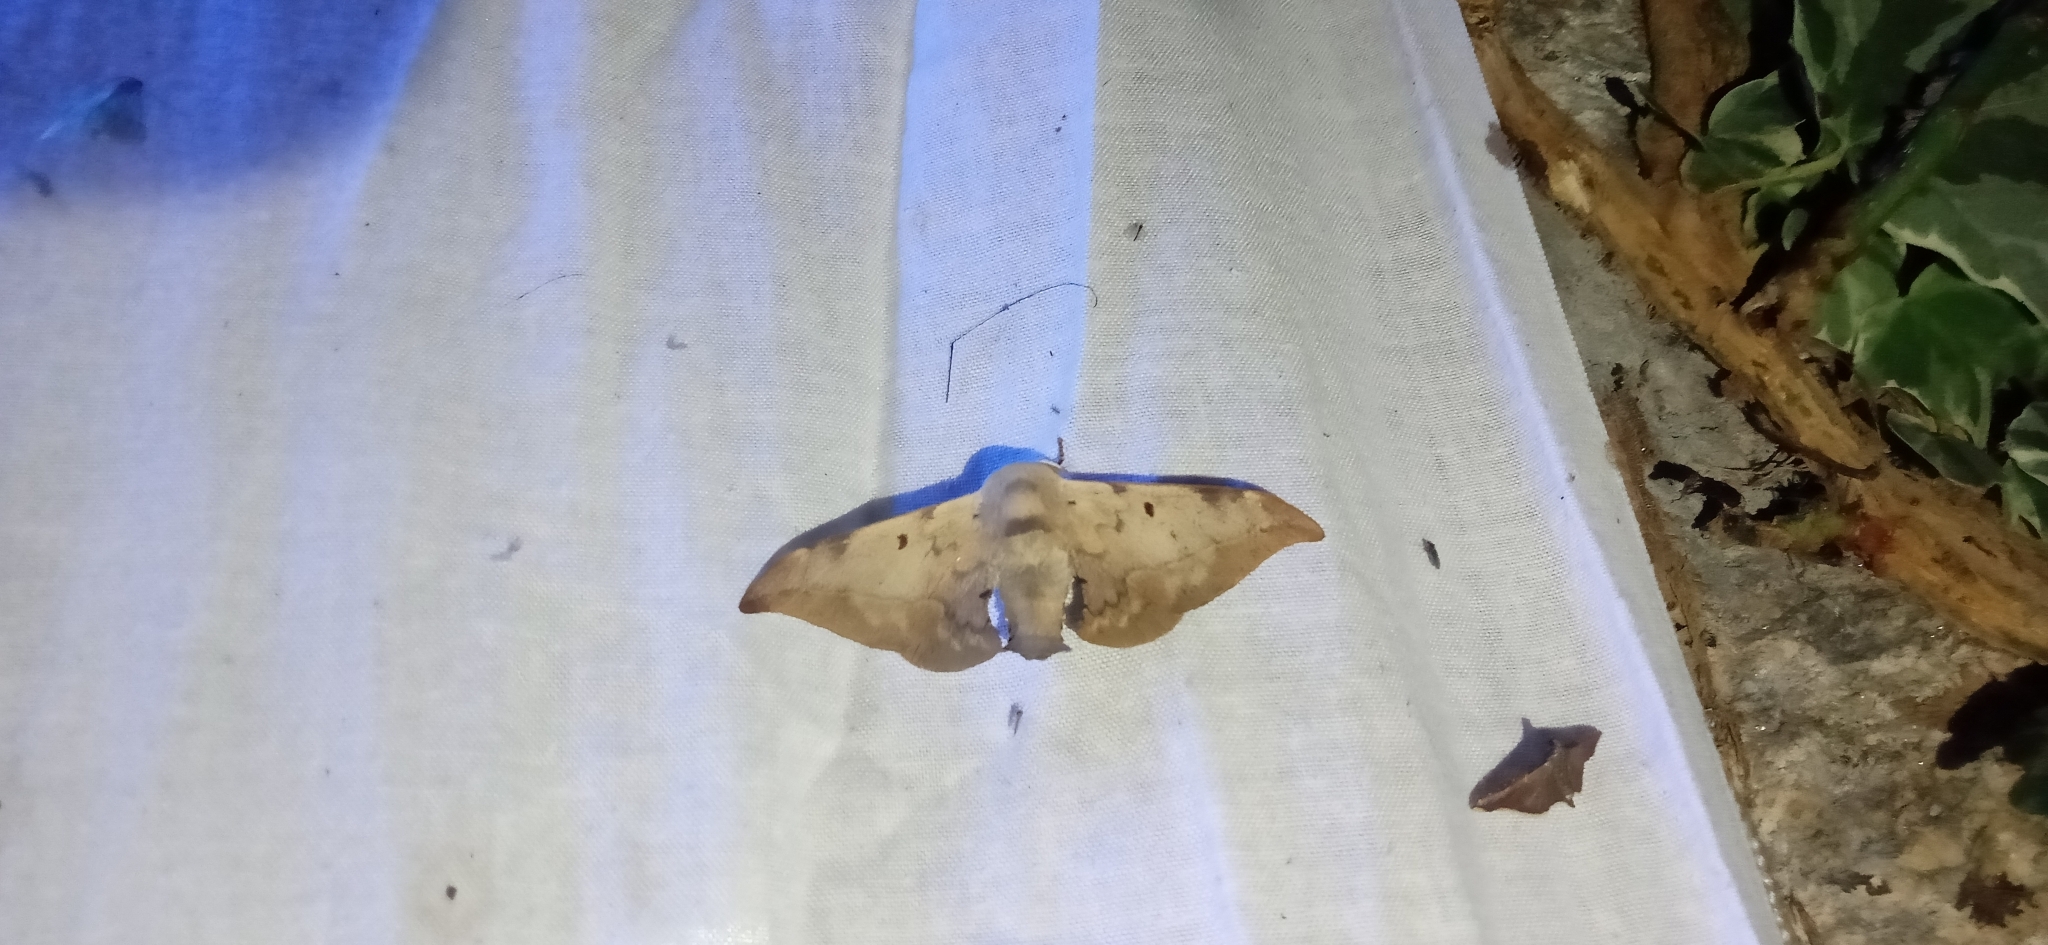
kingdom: Animalia
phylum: Arthropoda
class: Insecta
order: Lepidoptera
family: Endromidae
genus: Mustilizans
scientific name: Mustilizans hepatica
